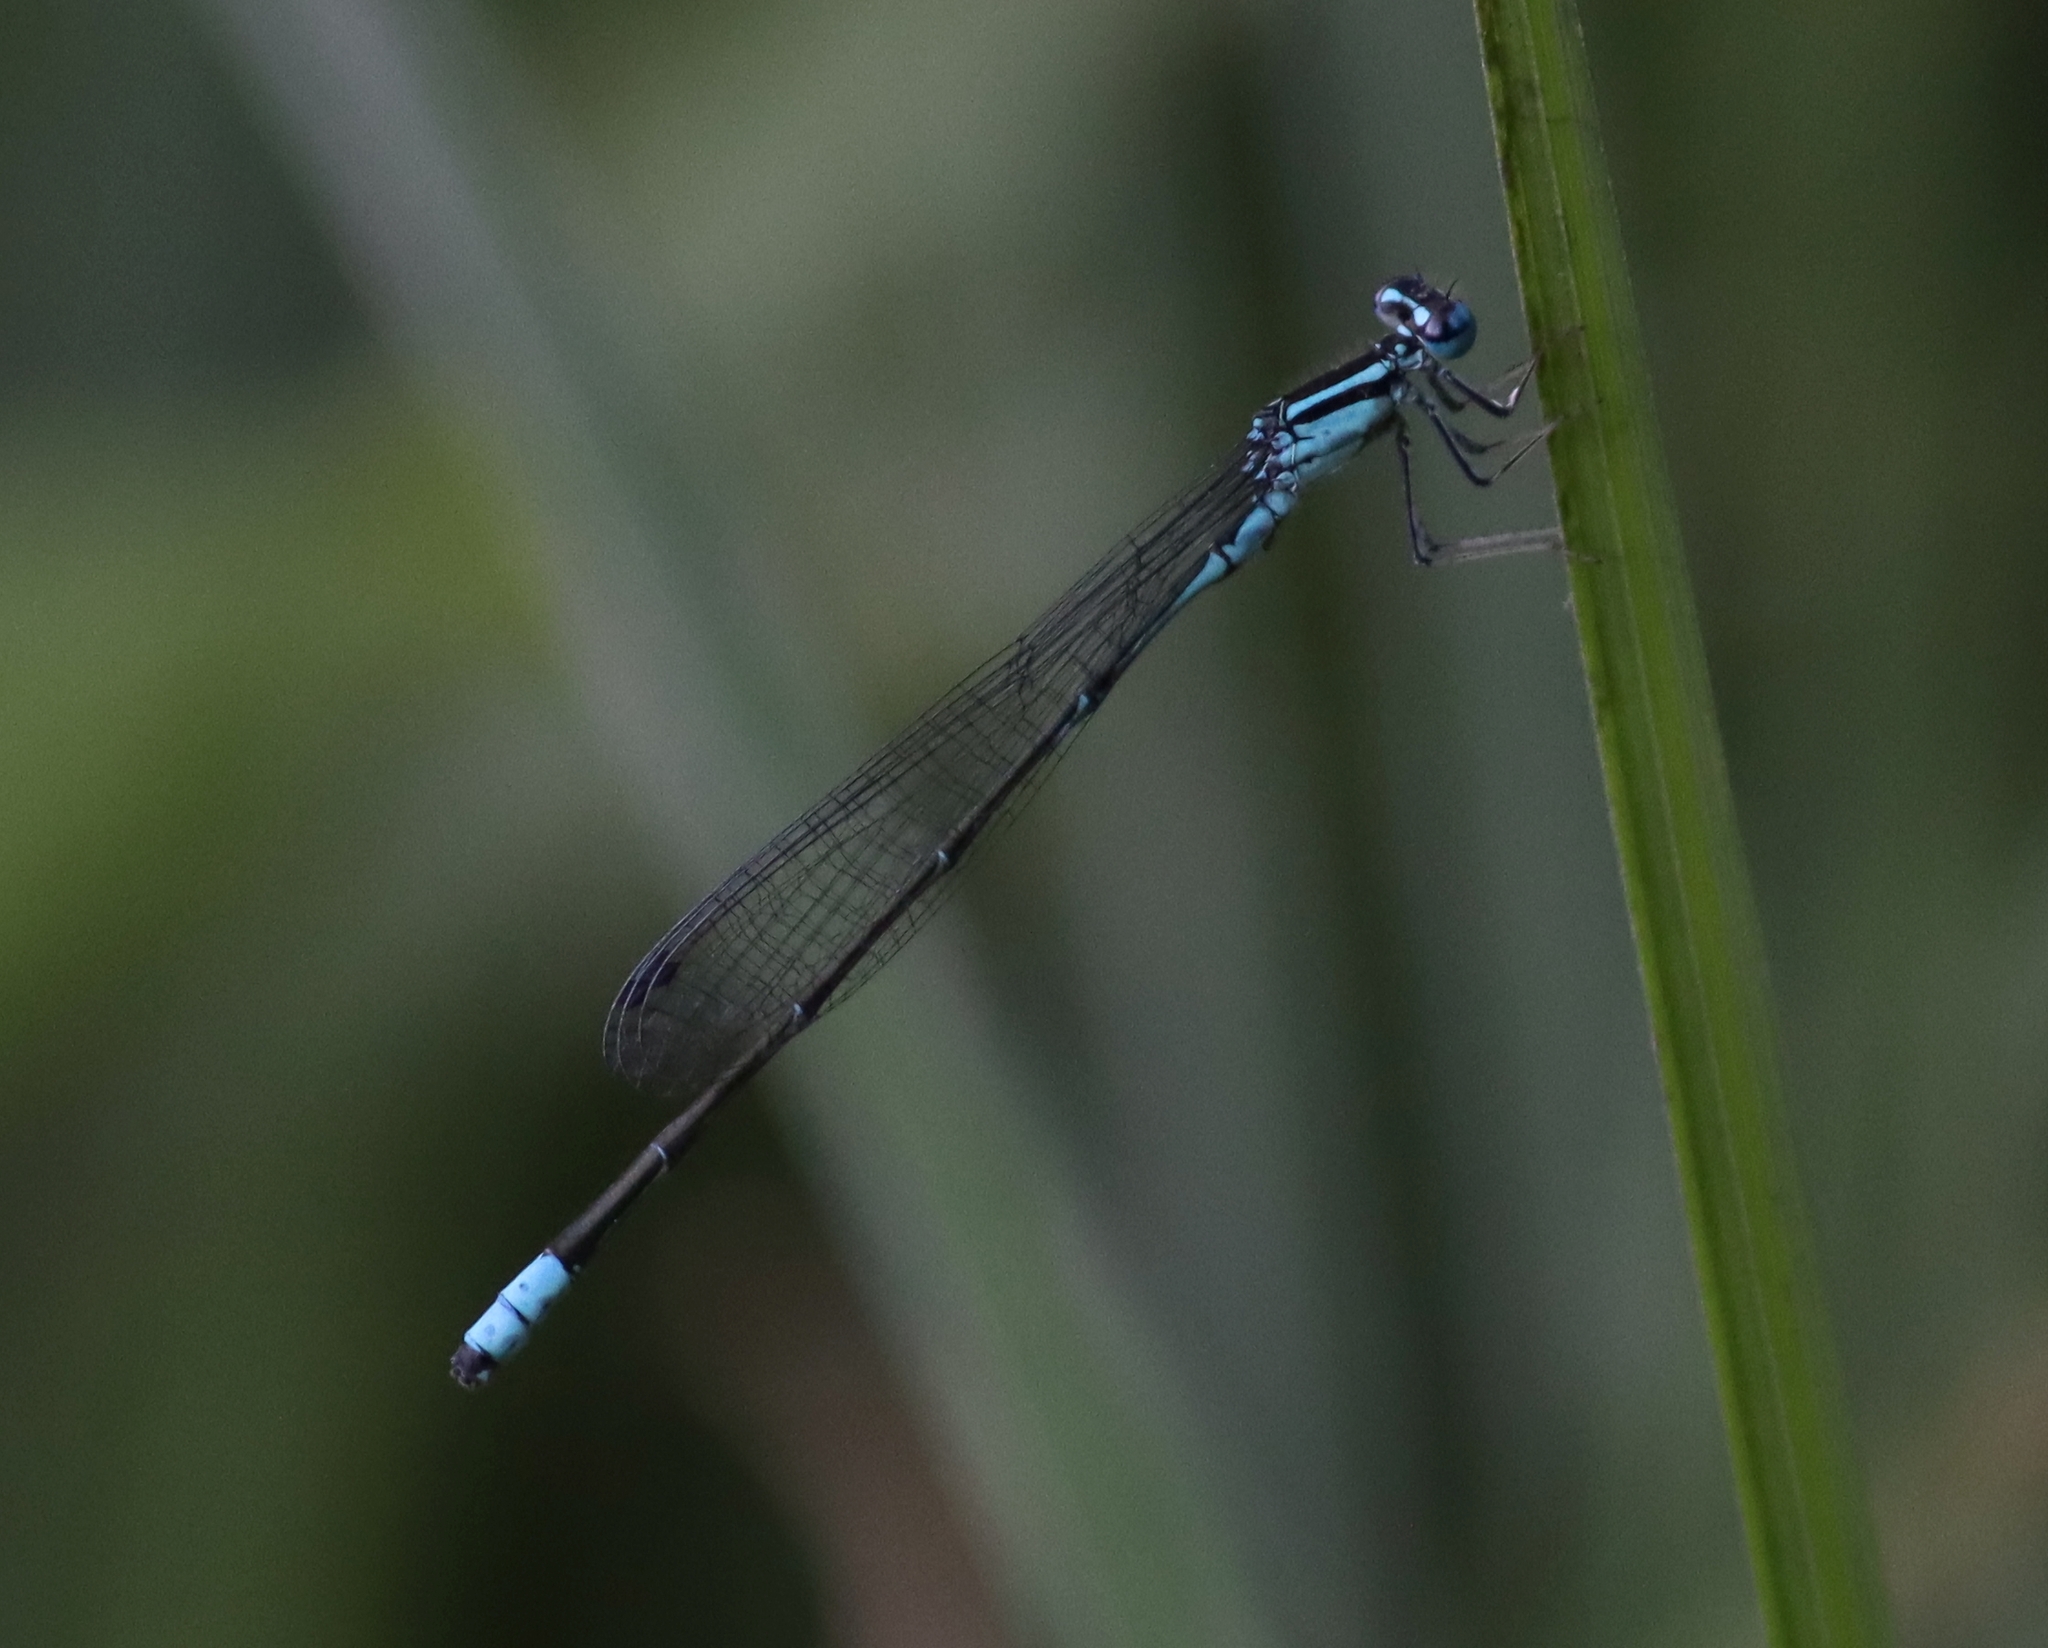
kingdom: Animalia
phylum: Arthropoda
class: Insecta
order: Odonata
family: Coenagrionidae
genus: Enallagma
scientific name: Enallagma divagans
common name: Turquoise bluet
